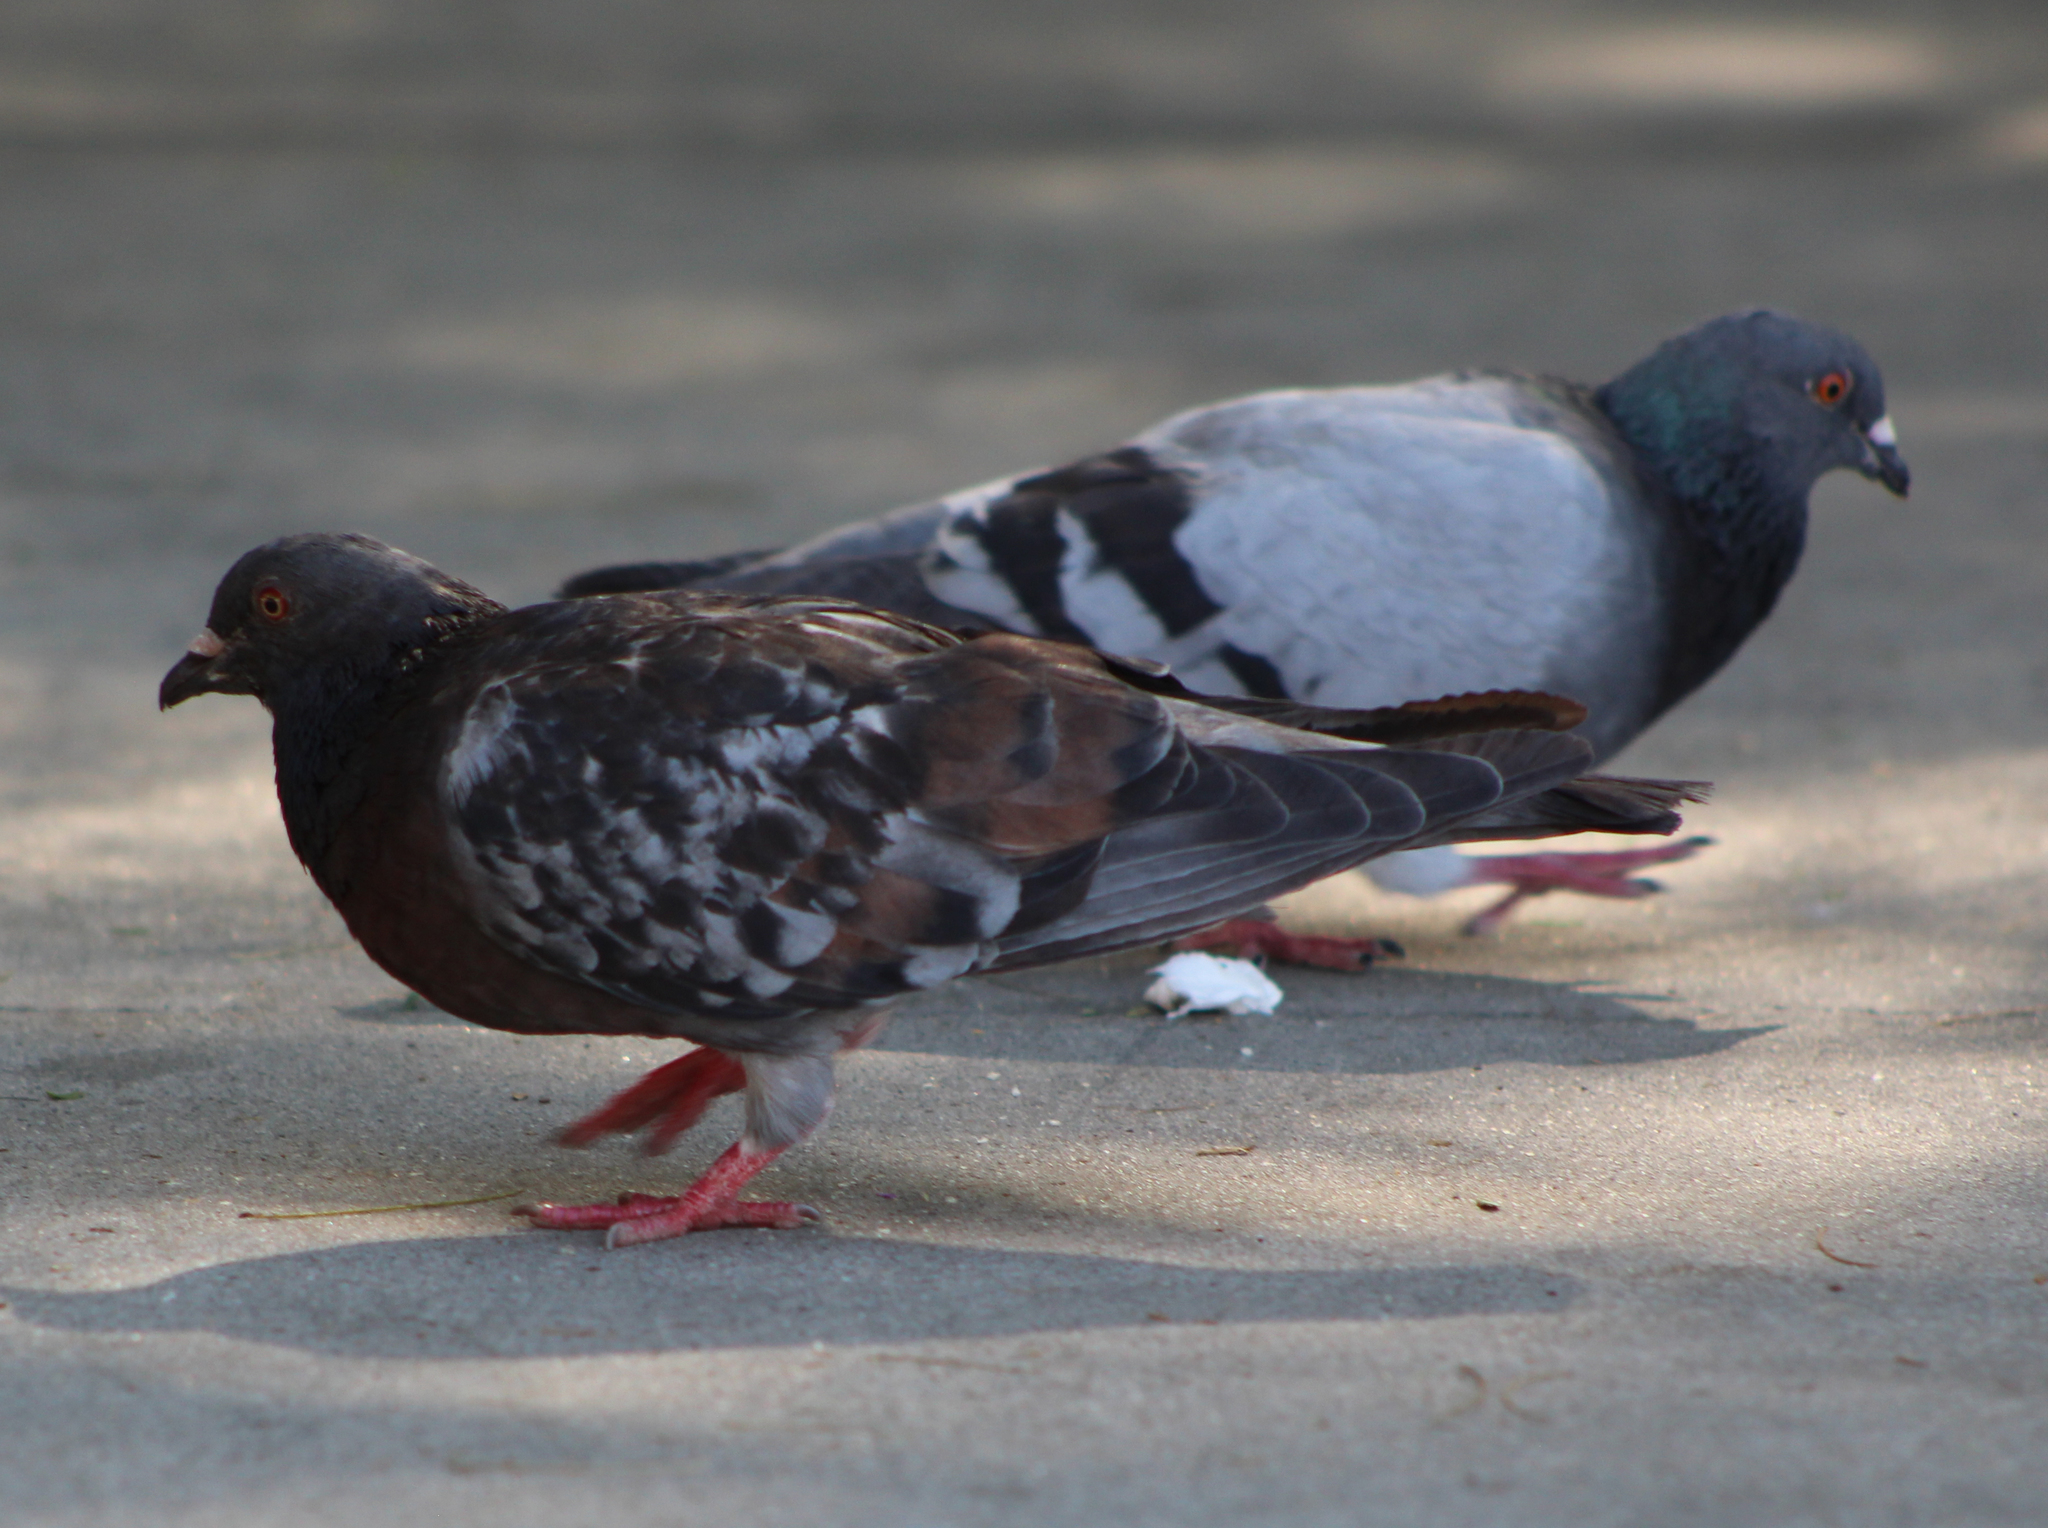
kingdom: Animalia
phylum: Chordata
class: Aves
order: Columbiformes
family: Columbidae
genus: Columba
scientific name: Columba livia
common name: Rock pigeon
